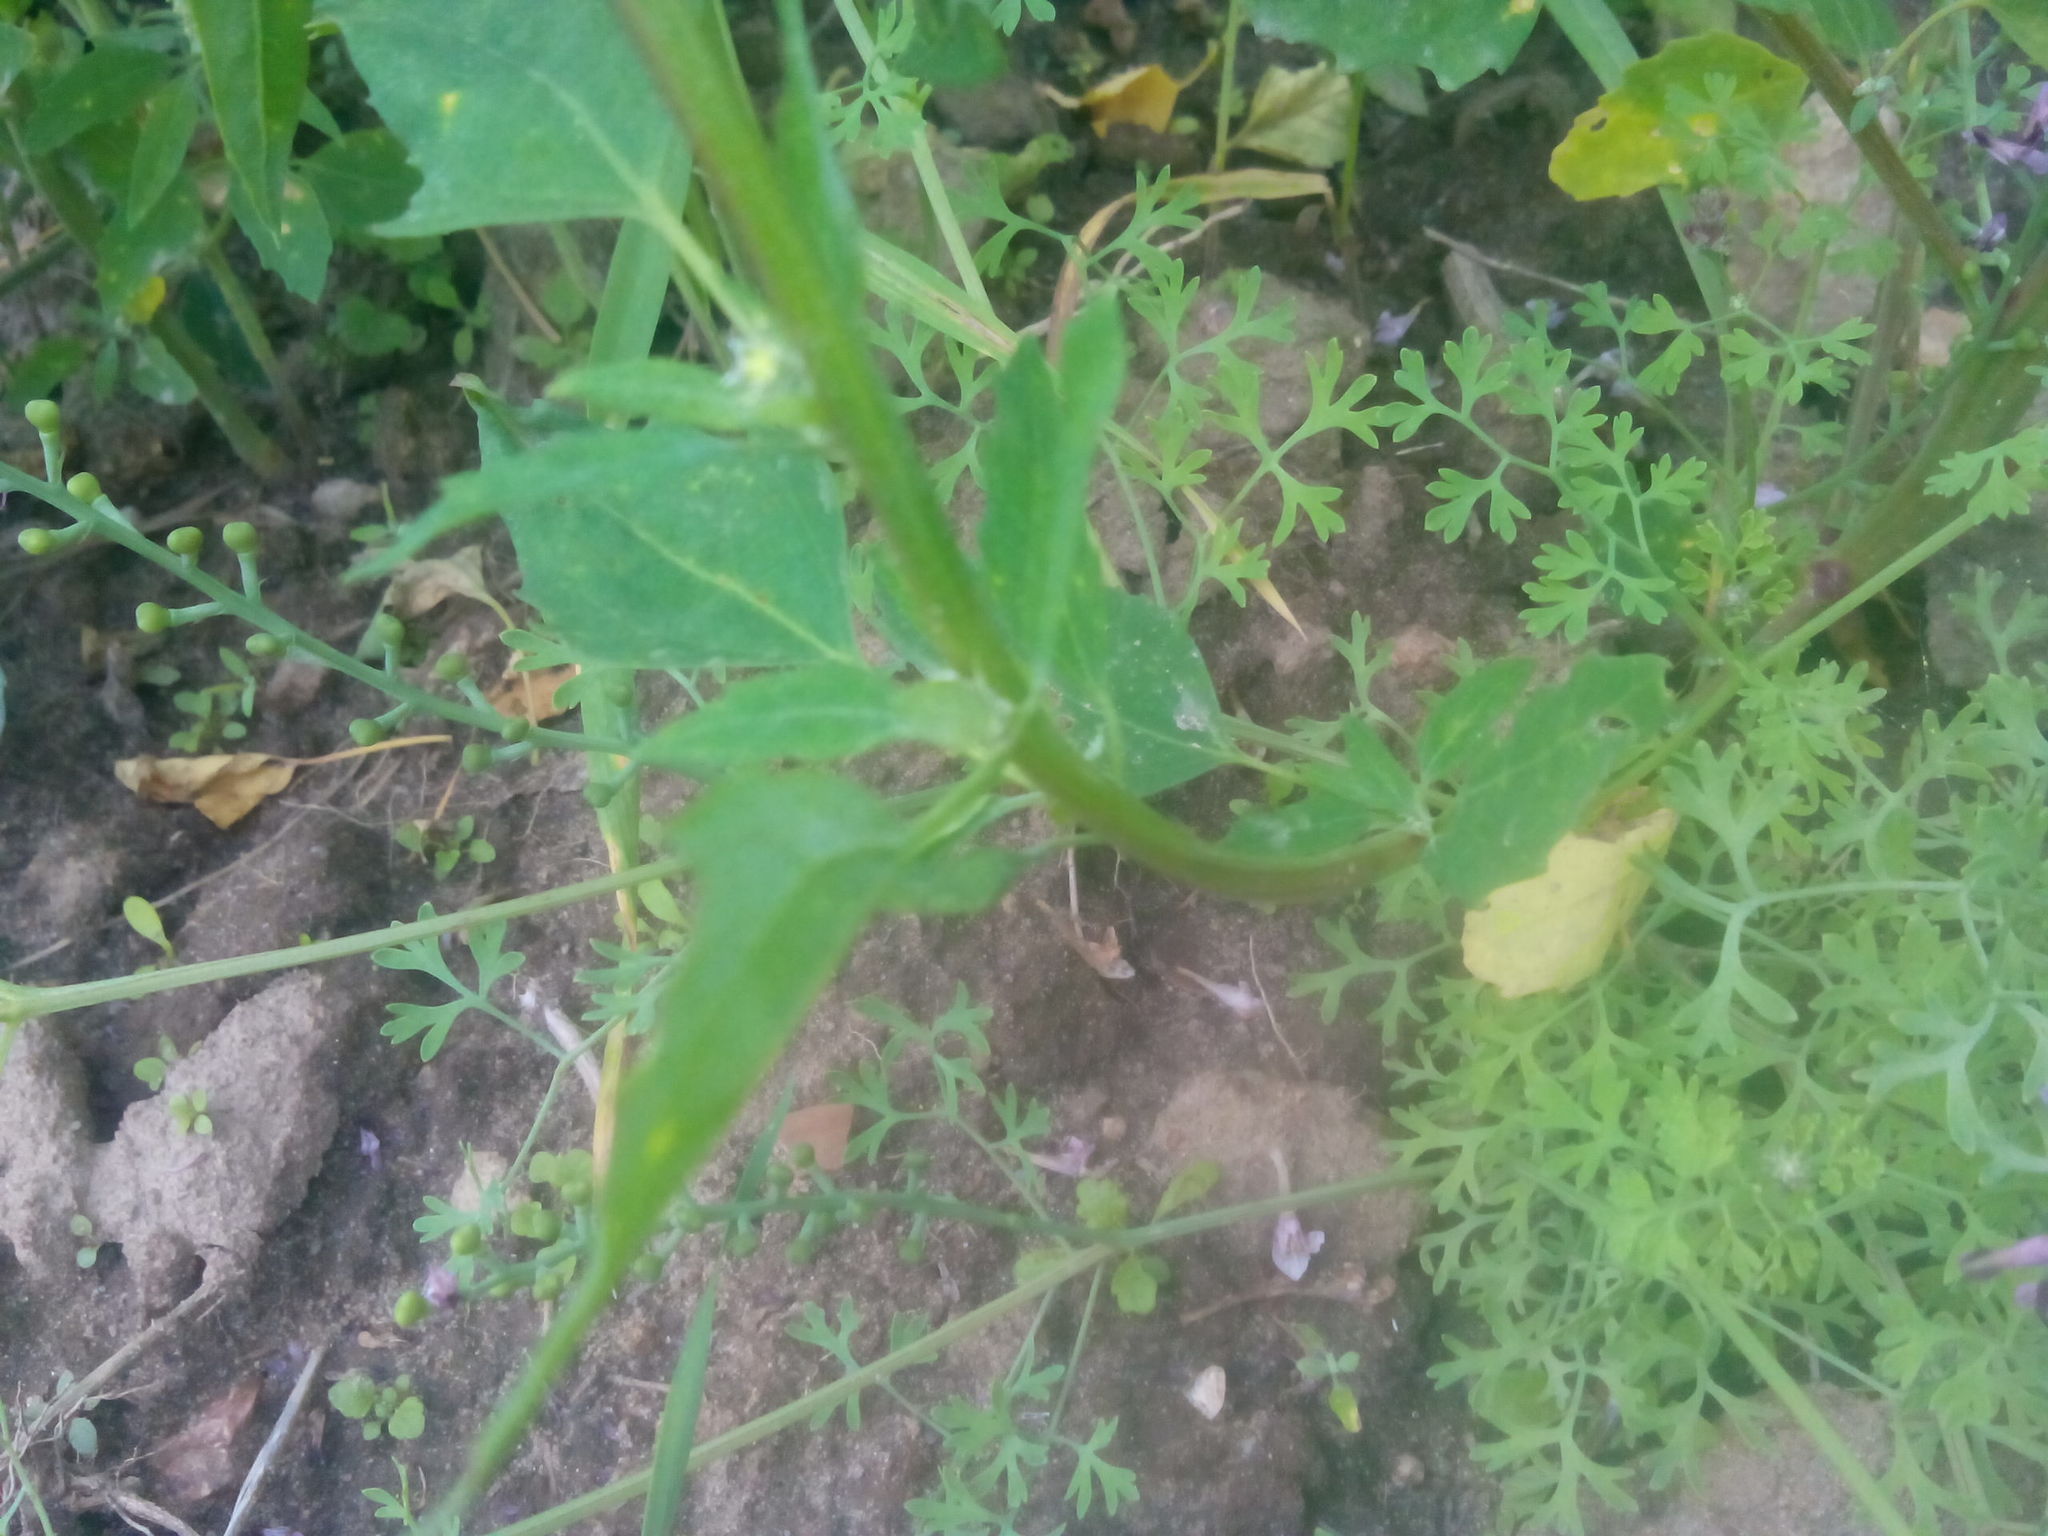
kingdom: Plantae
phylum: Tracheophyta
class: Magnoliopsida
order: Ranunculales
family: Papaveraceae
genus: Fumaria
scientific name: Fumaria officinalis
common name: Common fumitory
